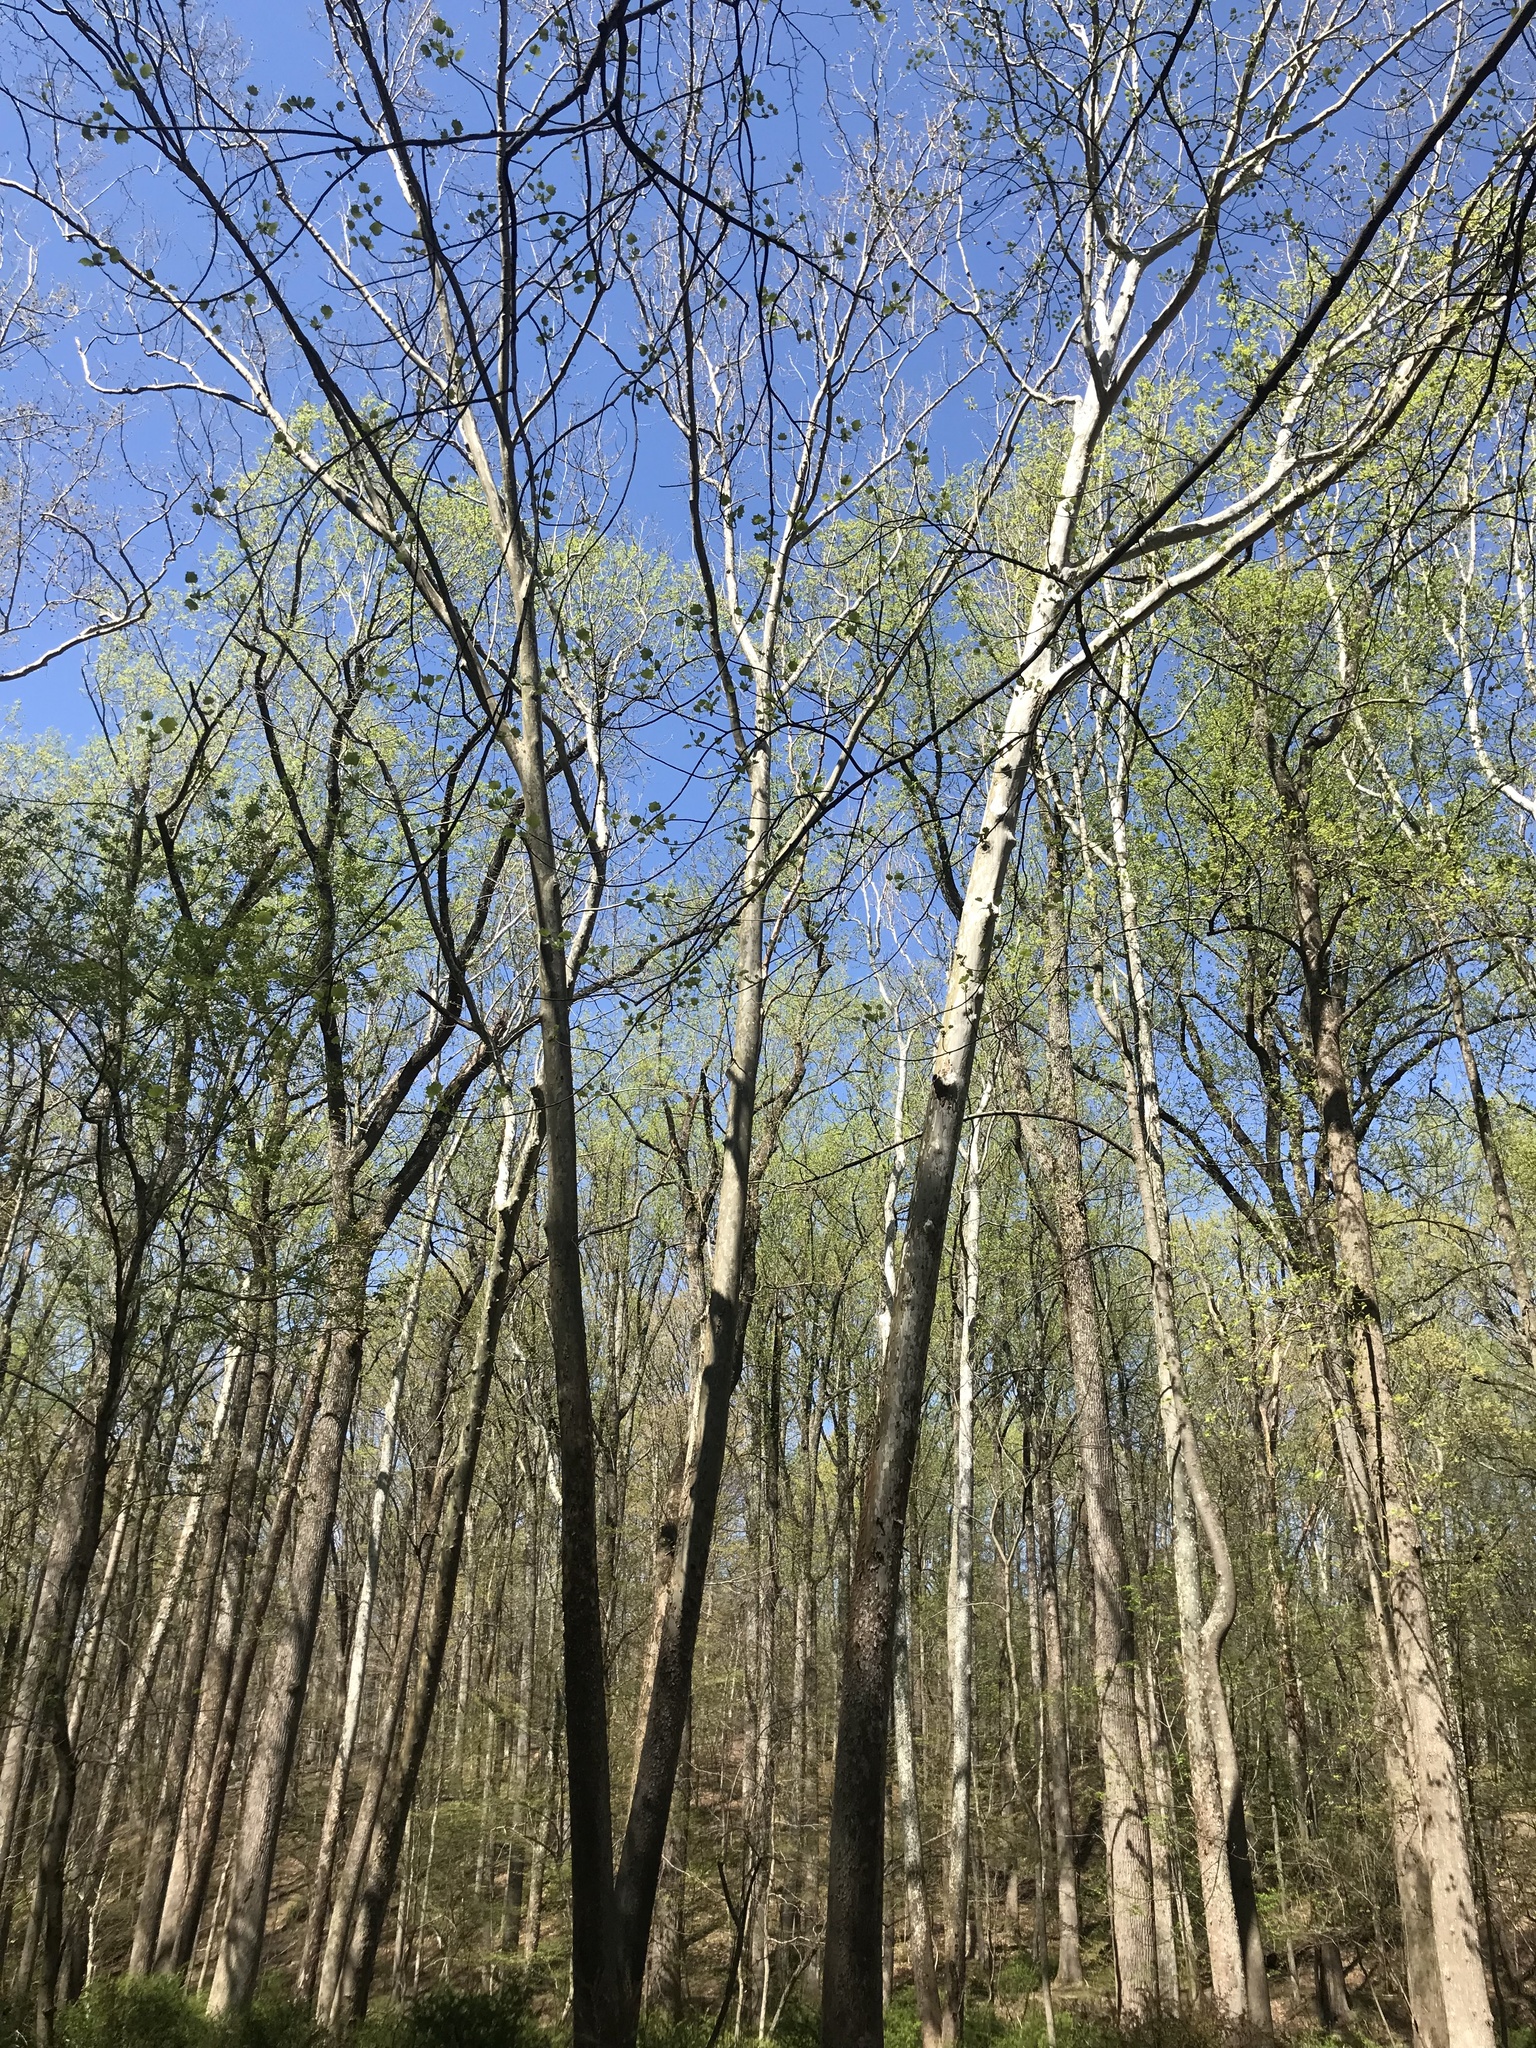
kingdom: Plantae
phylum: Tracheophyta
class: Magnoliopsida
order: Proteales
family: Platanaceae
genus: Platanus
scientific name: Platanus occidentalis
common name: American sycamore
